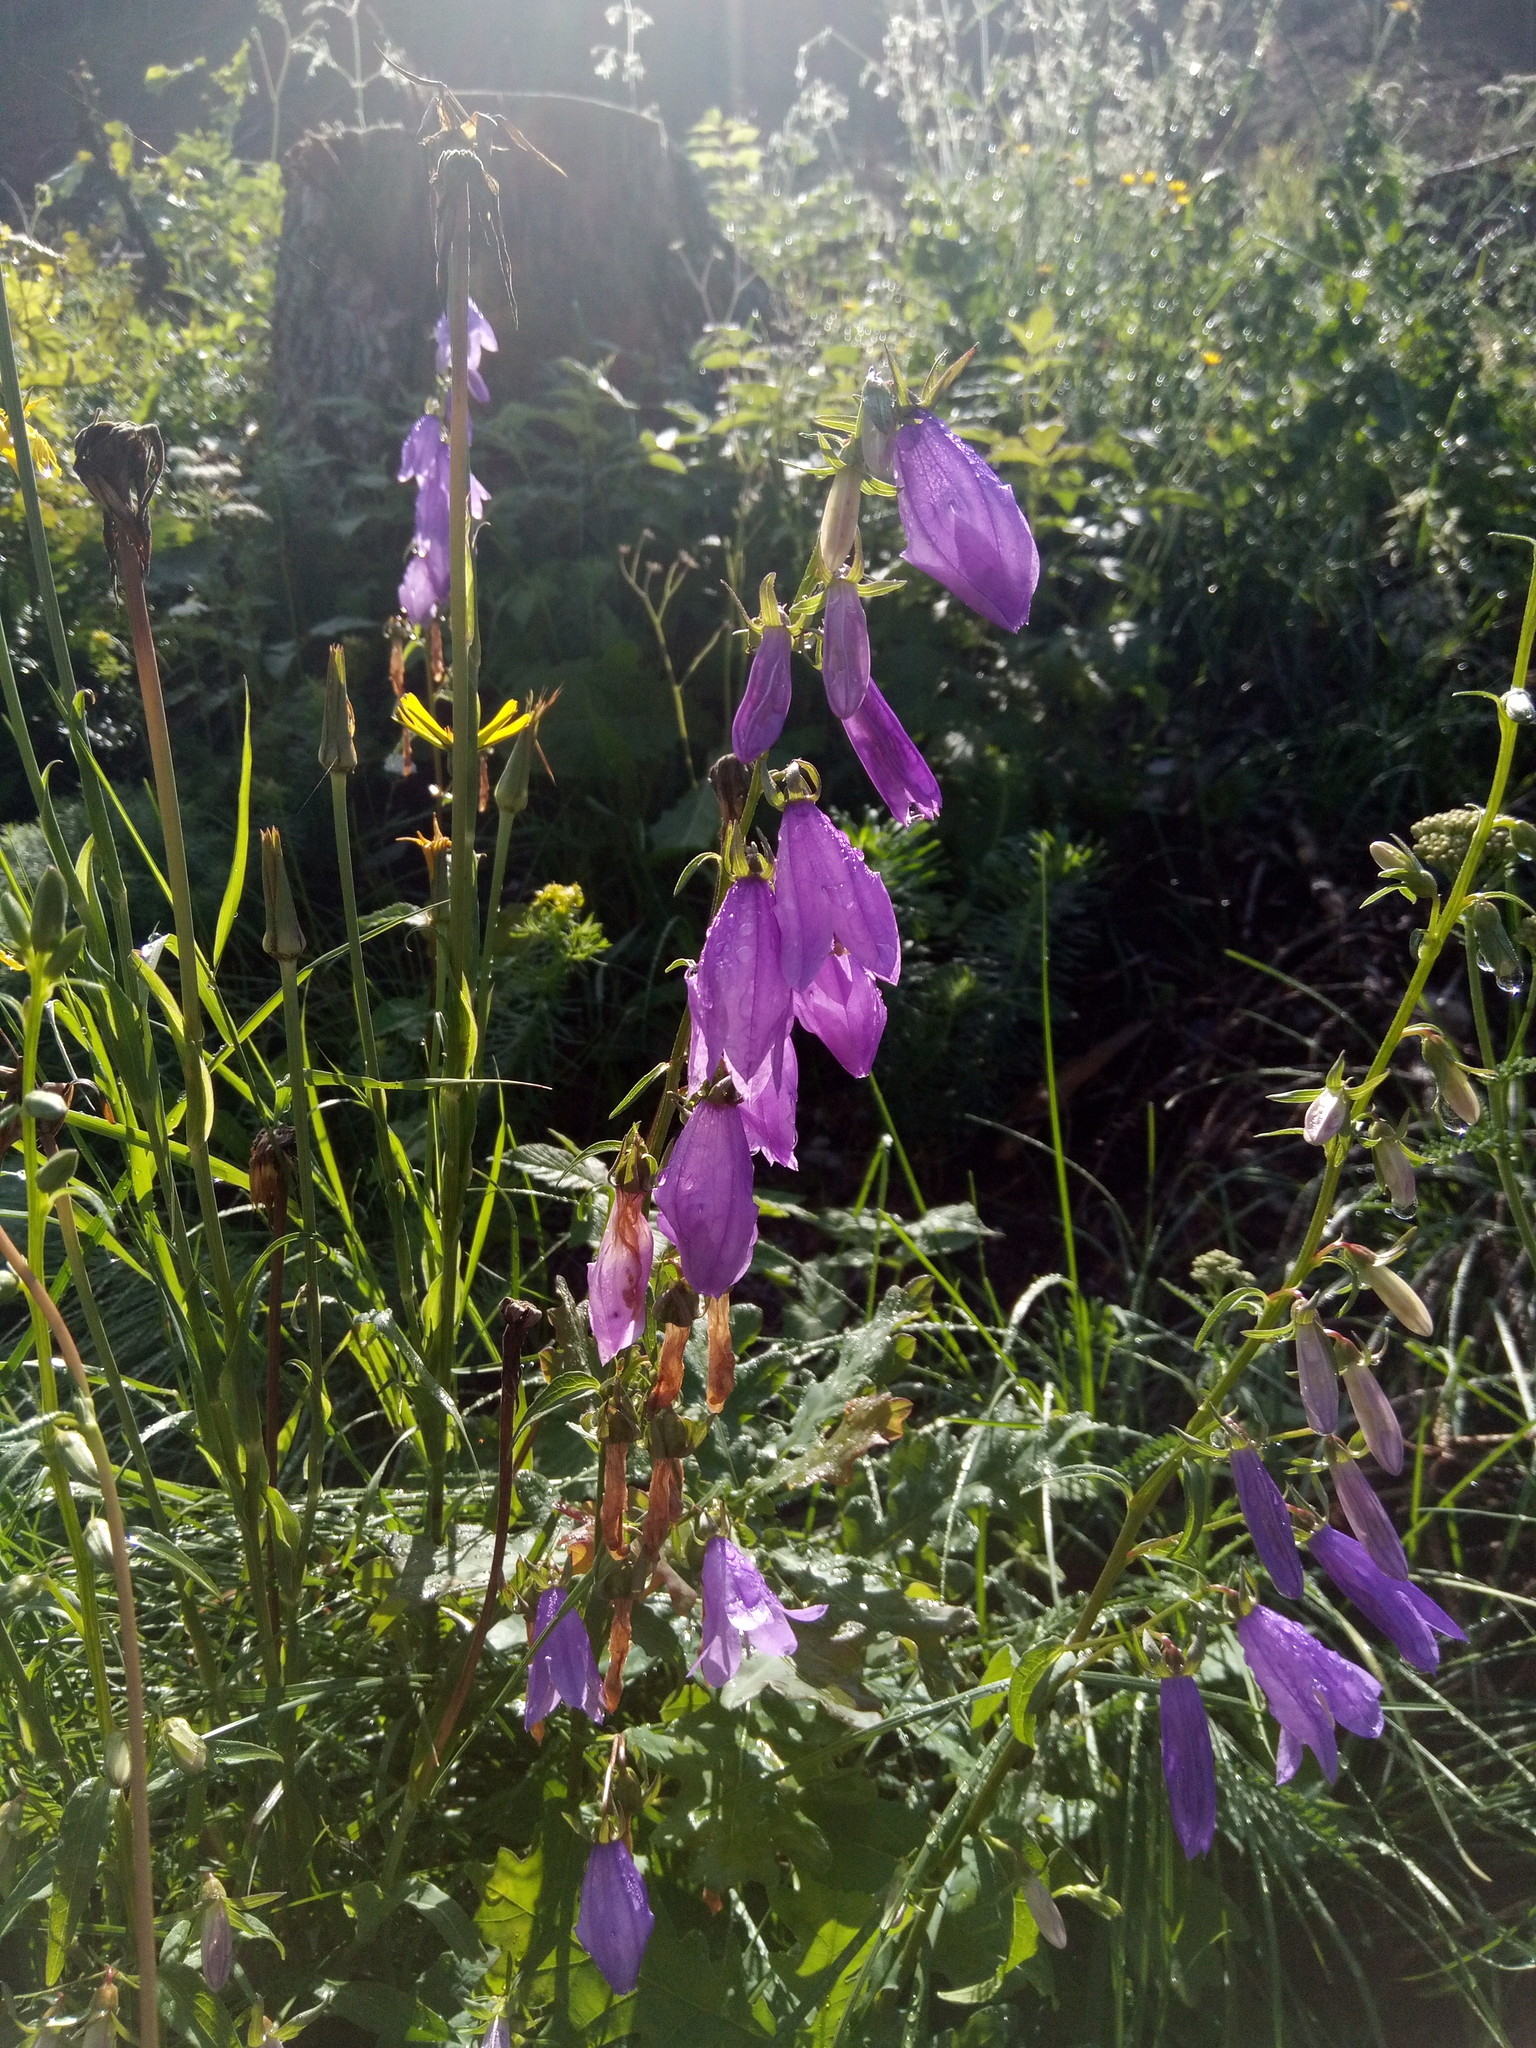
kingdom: Plantae
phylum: Tracheophyta
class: Magnoliopsida
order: Asterales
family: Campanulaceae
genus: Campanula
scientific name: Campanula rapunculoides
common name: Creeping bellflower
